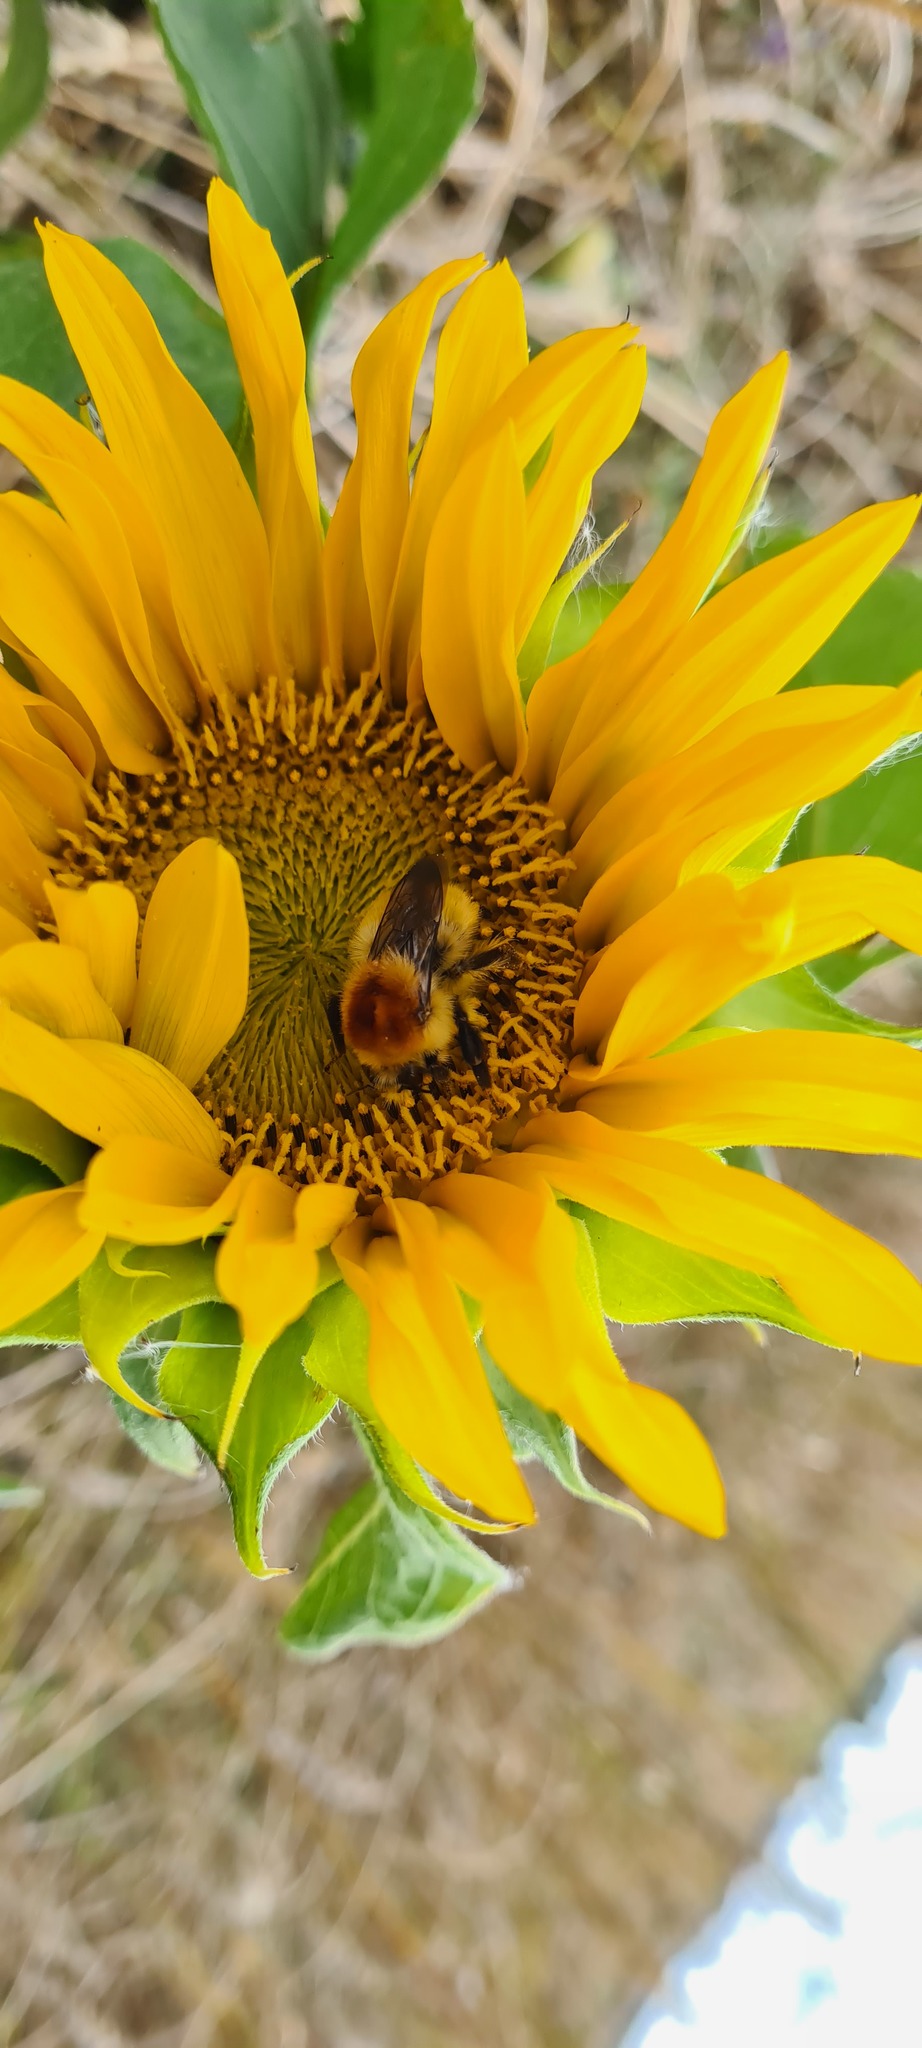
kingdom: Animalia
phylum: Arthropoda
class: Insecta
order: Hymenoptera
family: Apidae
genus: Bombus
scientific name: Bombus muscorum
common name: Moss carder-bee
